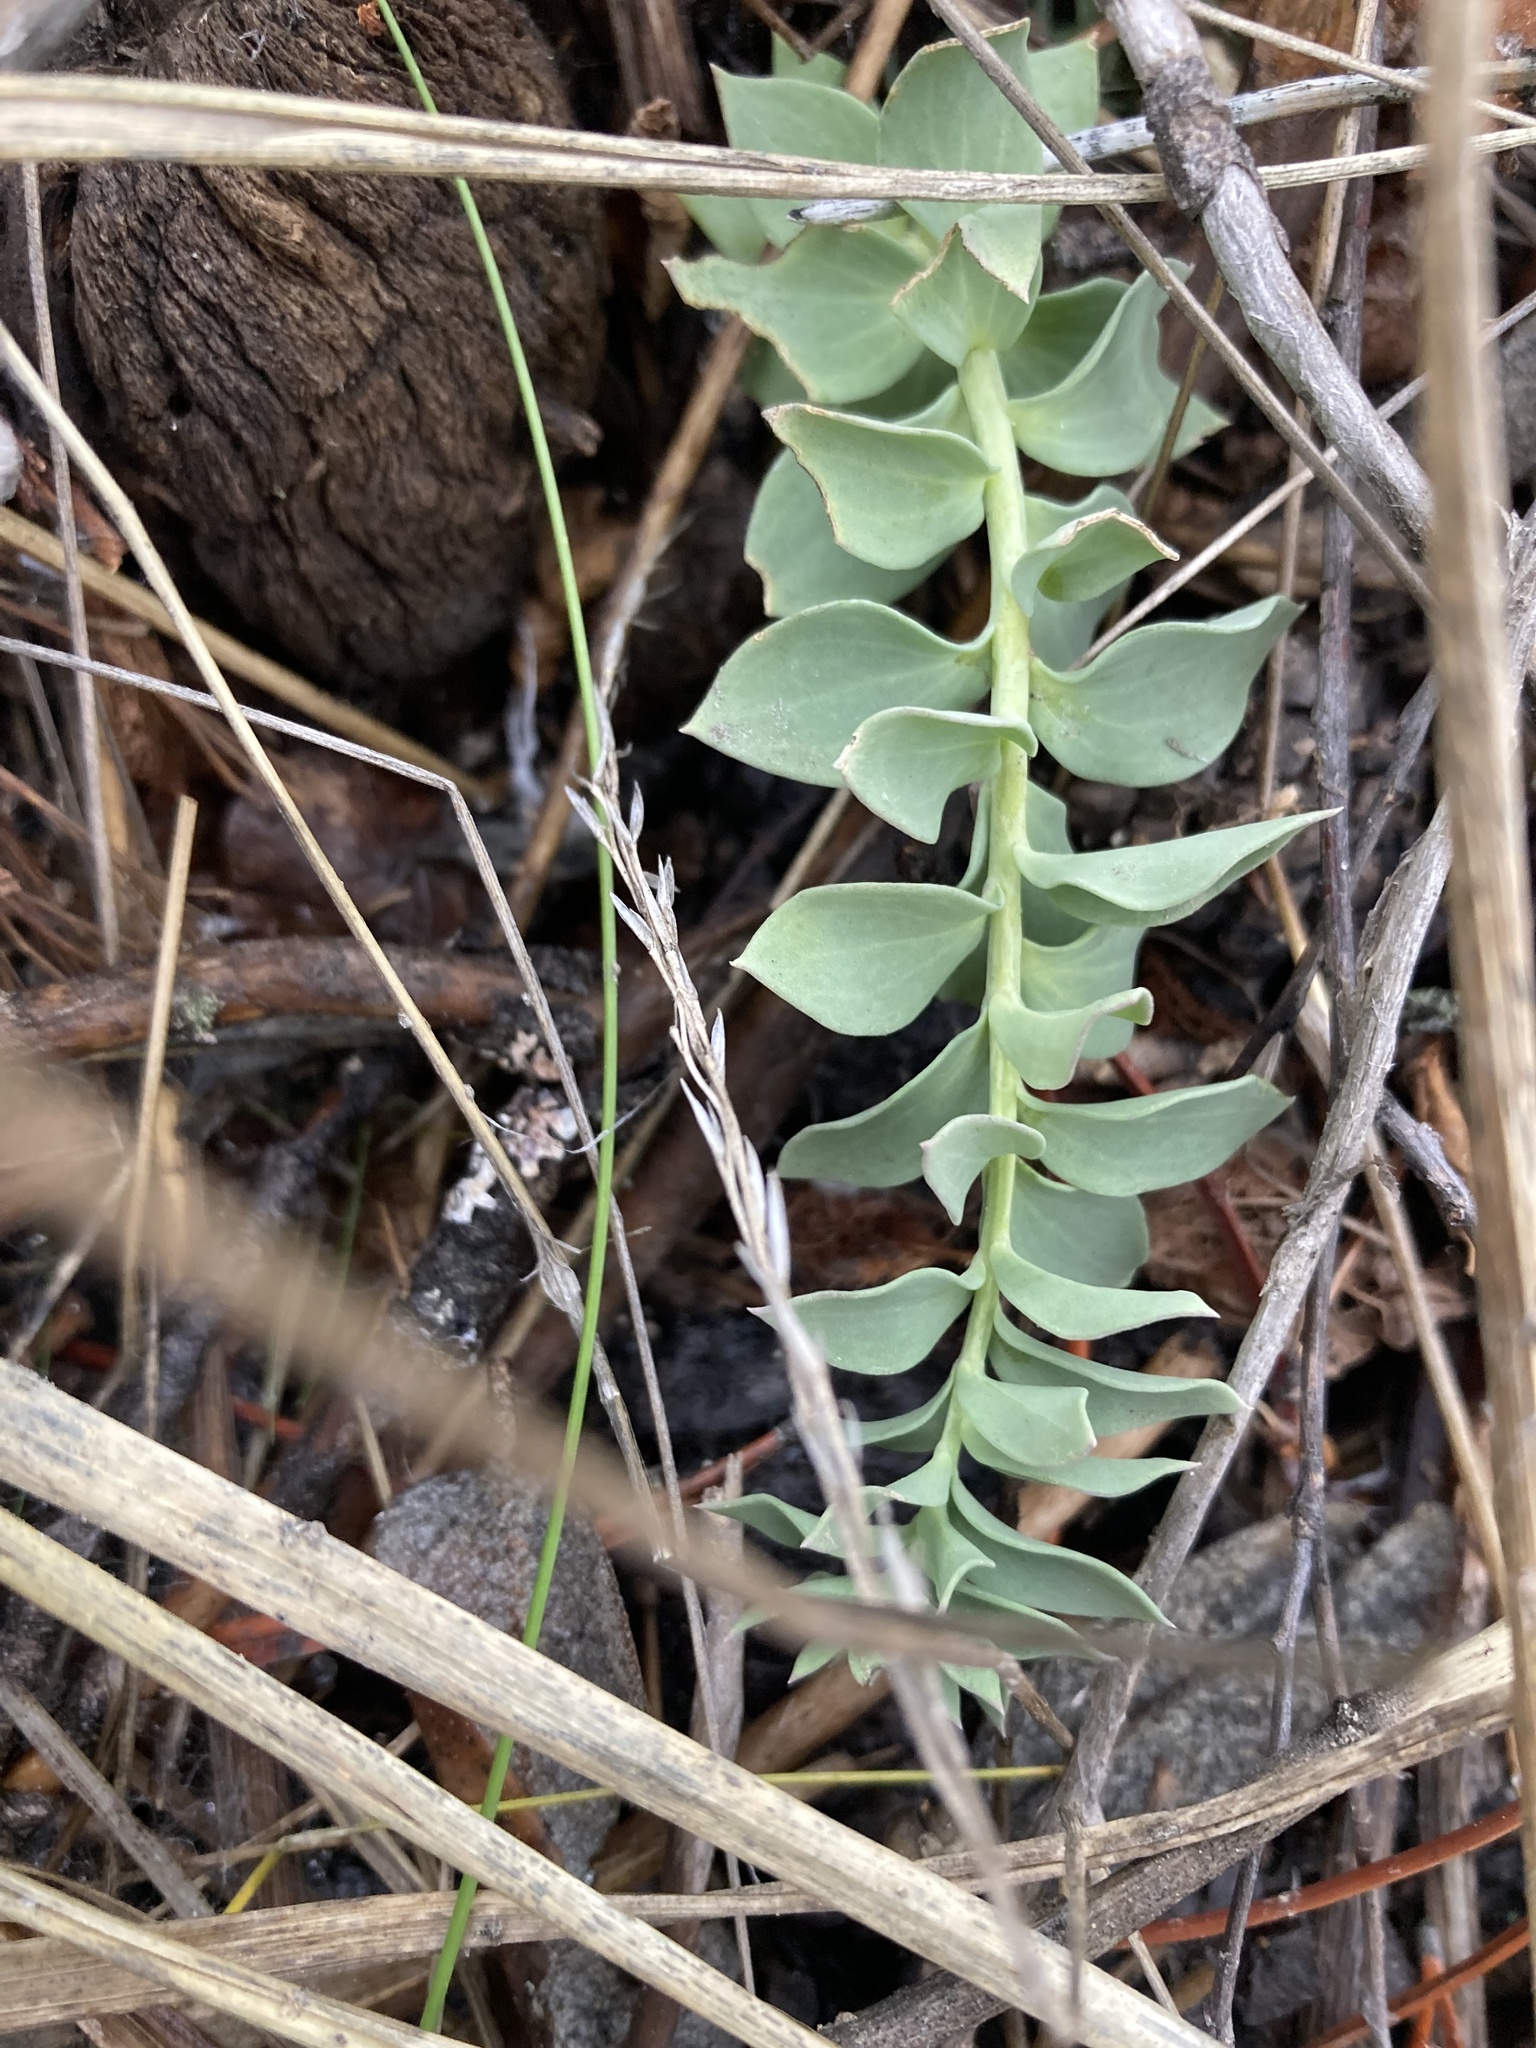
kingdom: Plantae
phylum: Tracheophyta
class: Magnoliopsida
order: Lamiales
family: Plantaginaceae
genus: Linaria
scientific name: Linaria dalmatica
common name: Dalmatian toadflax
